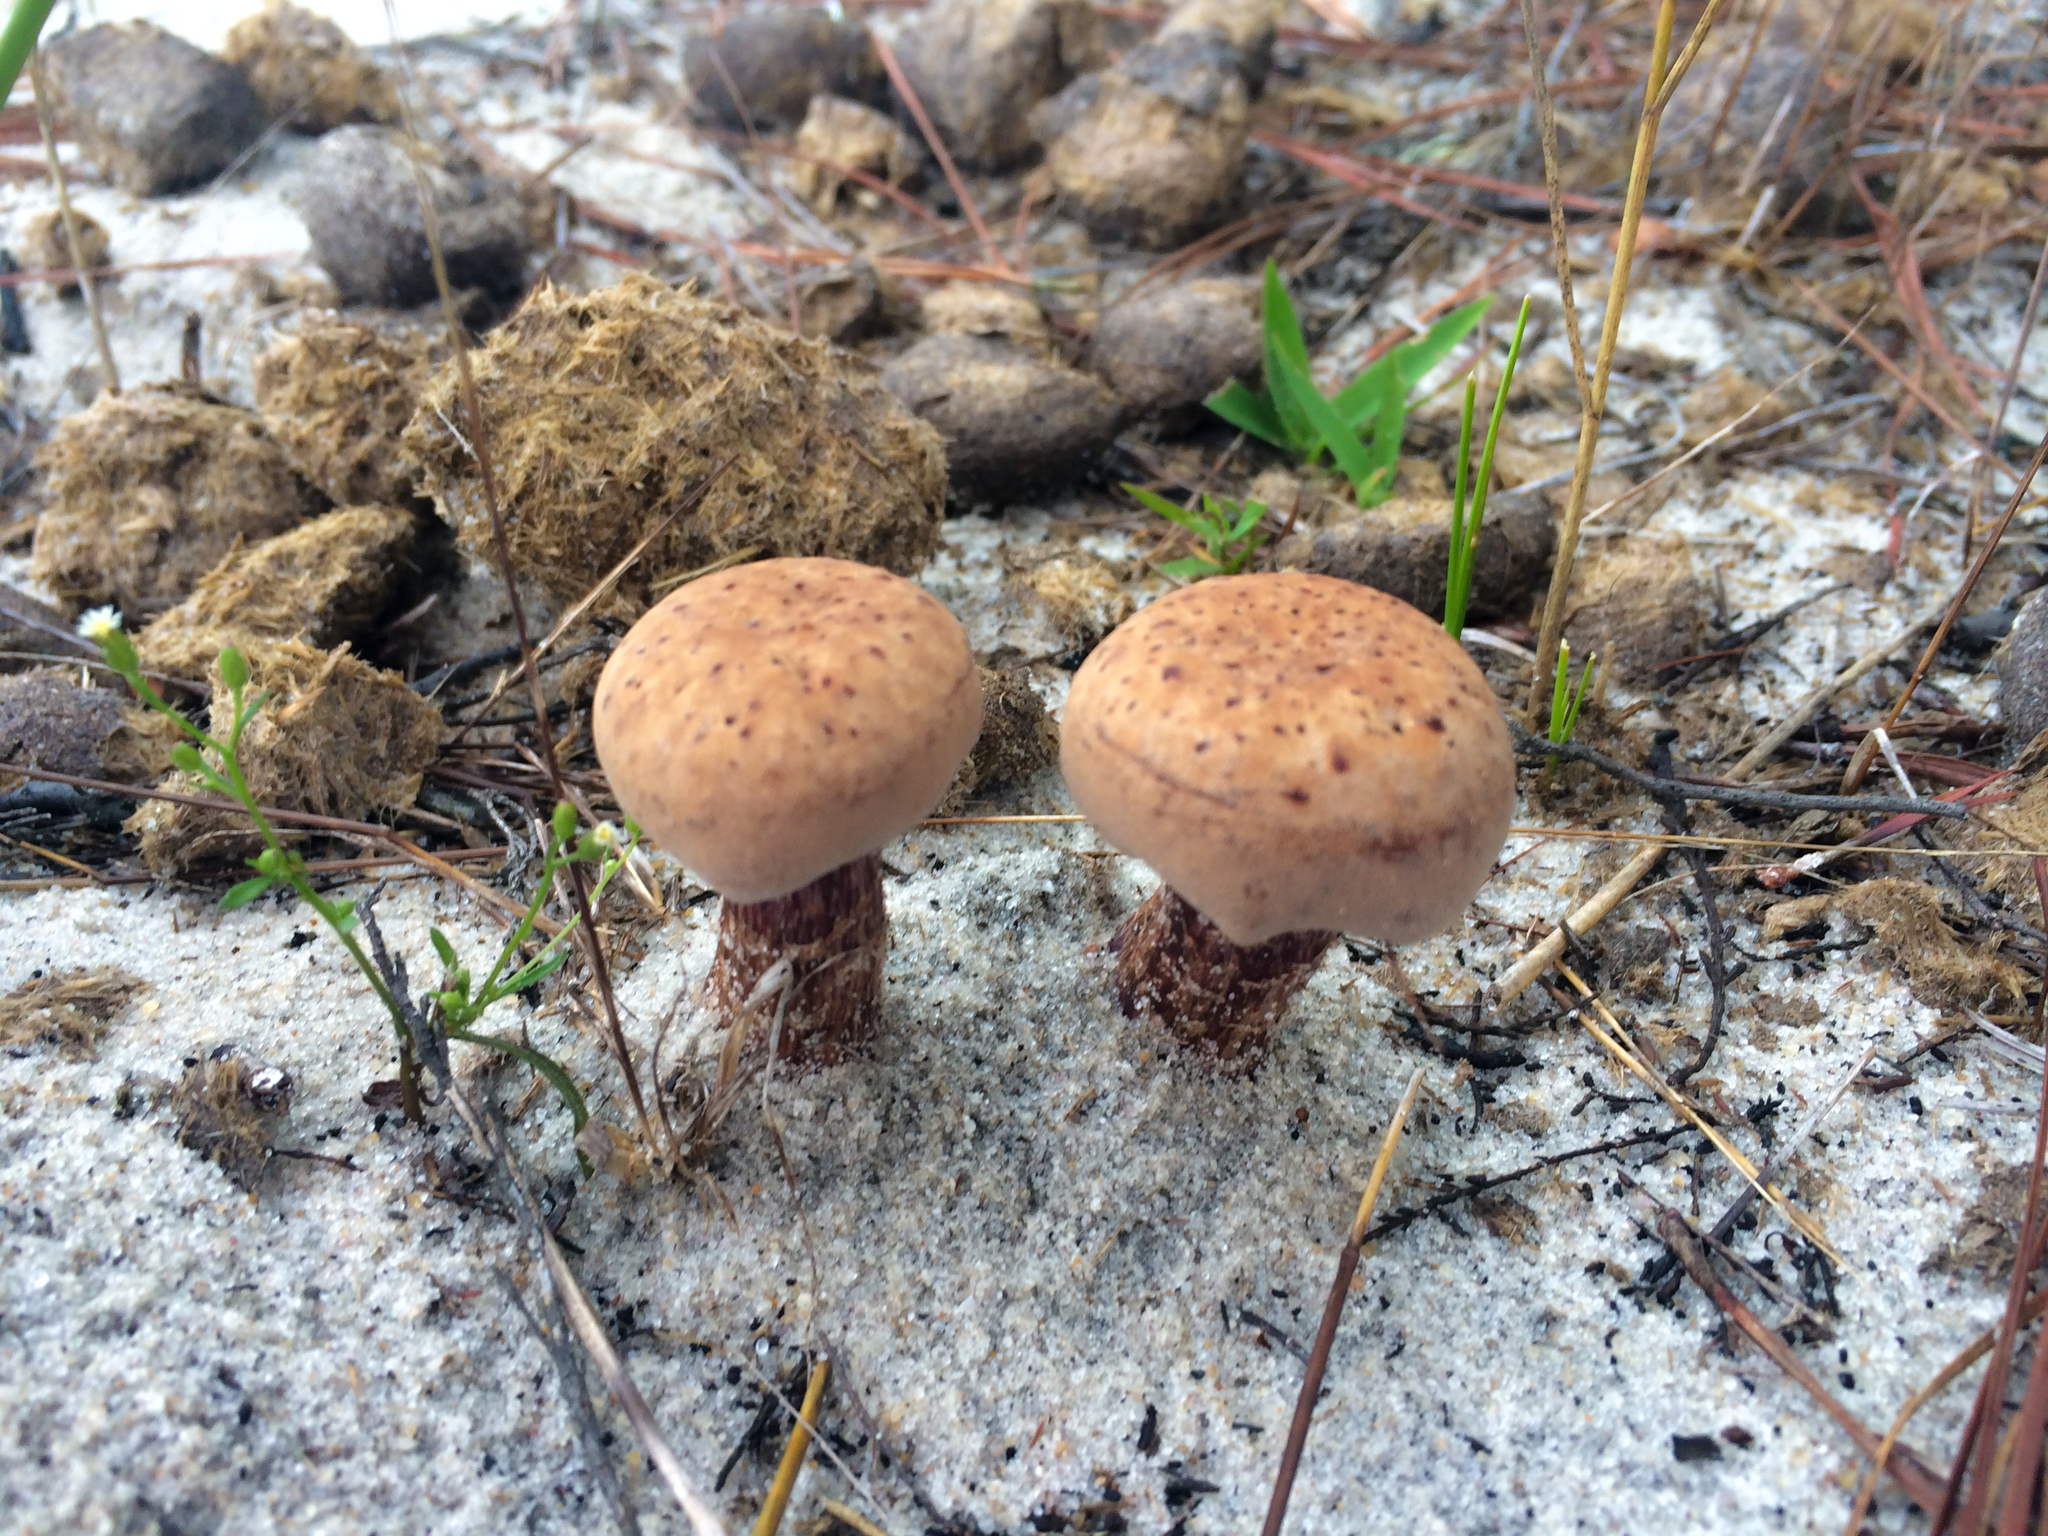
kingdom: Fungi
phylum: Basidiomycota
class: Agaricomycetes
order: Agaricales
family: Hydnangiaceae
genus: Laccaria
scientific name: Laccaria trullissata
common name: Sandy laccaria
